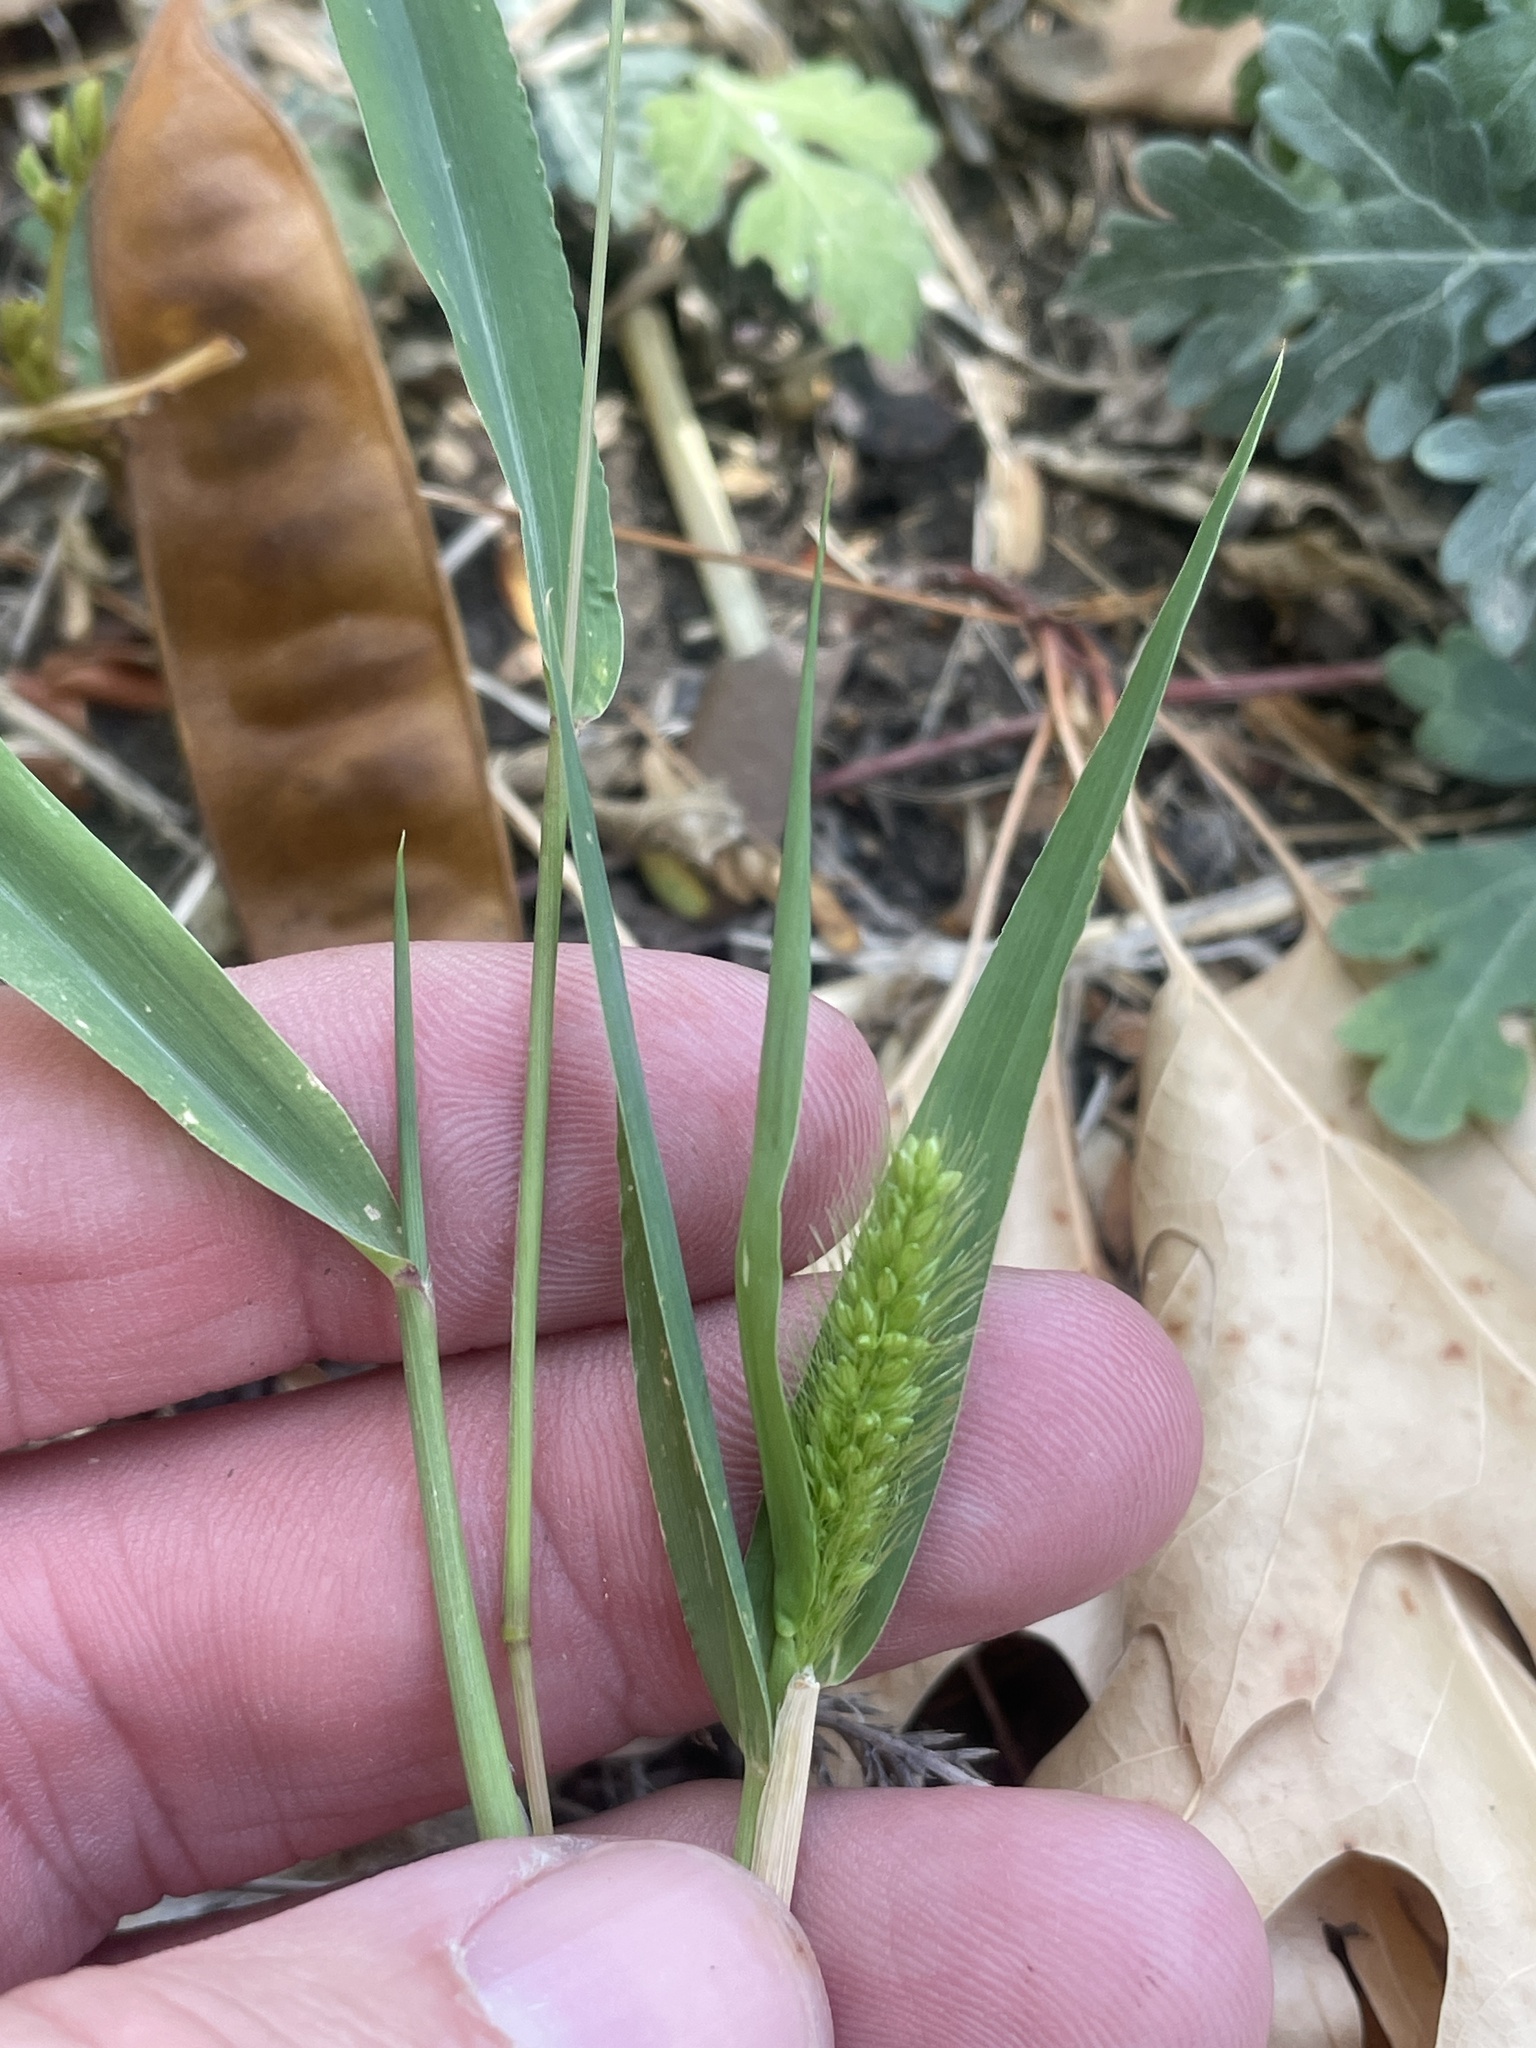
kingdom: Plantae
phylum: Tracheophyta
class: Liliopsida
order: Poales
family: Poaceae
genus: Setaria
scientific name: Setaria viridis
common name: Green bristlegrass
